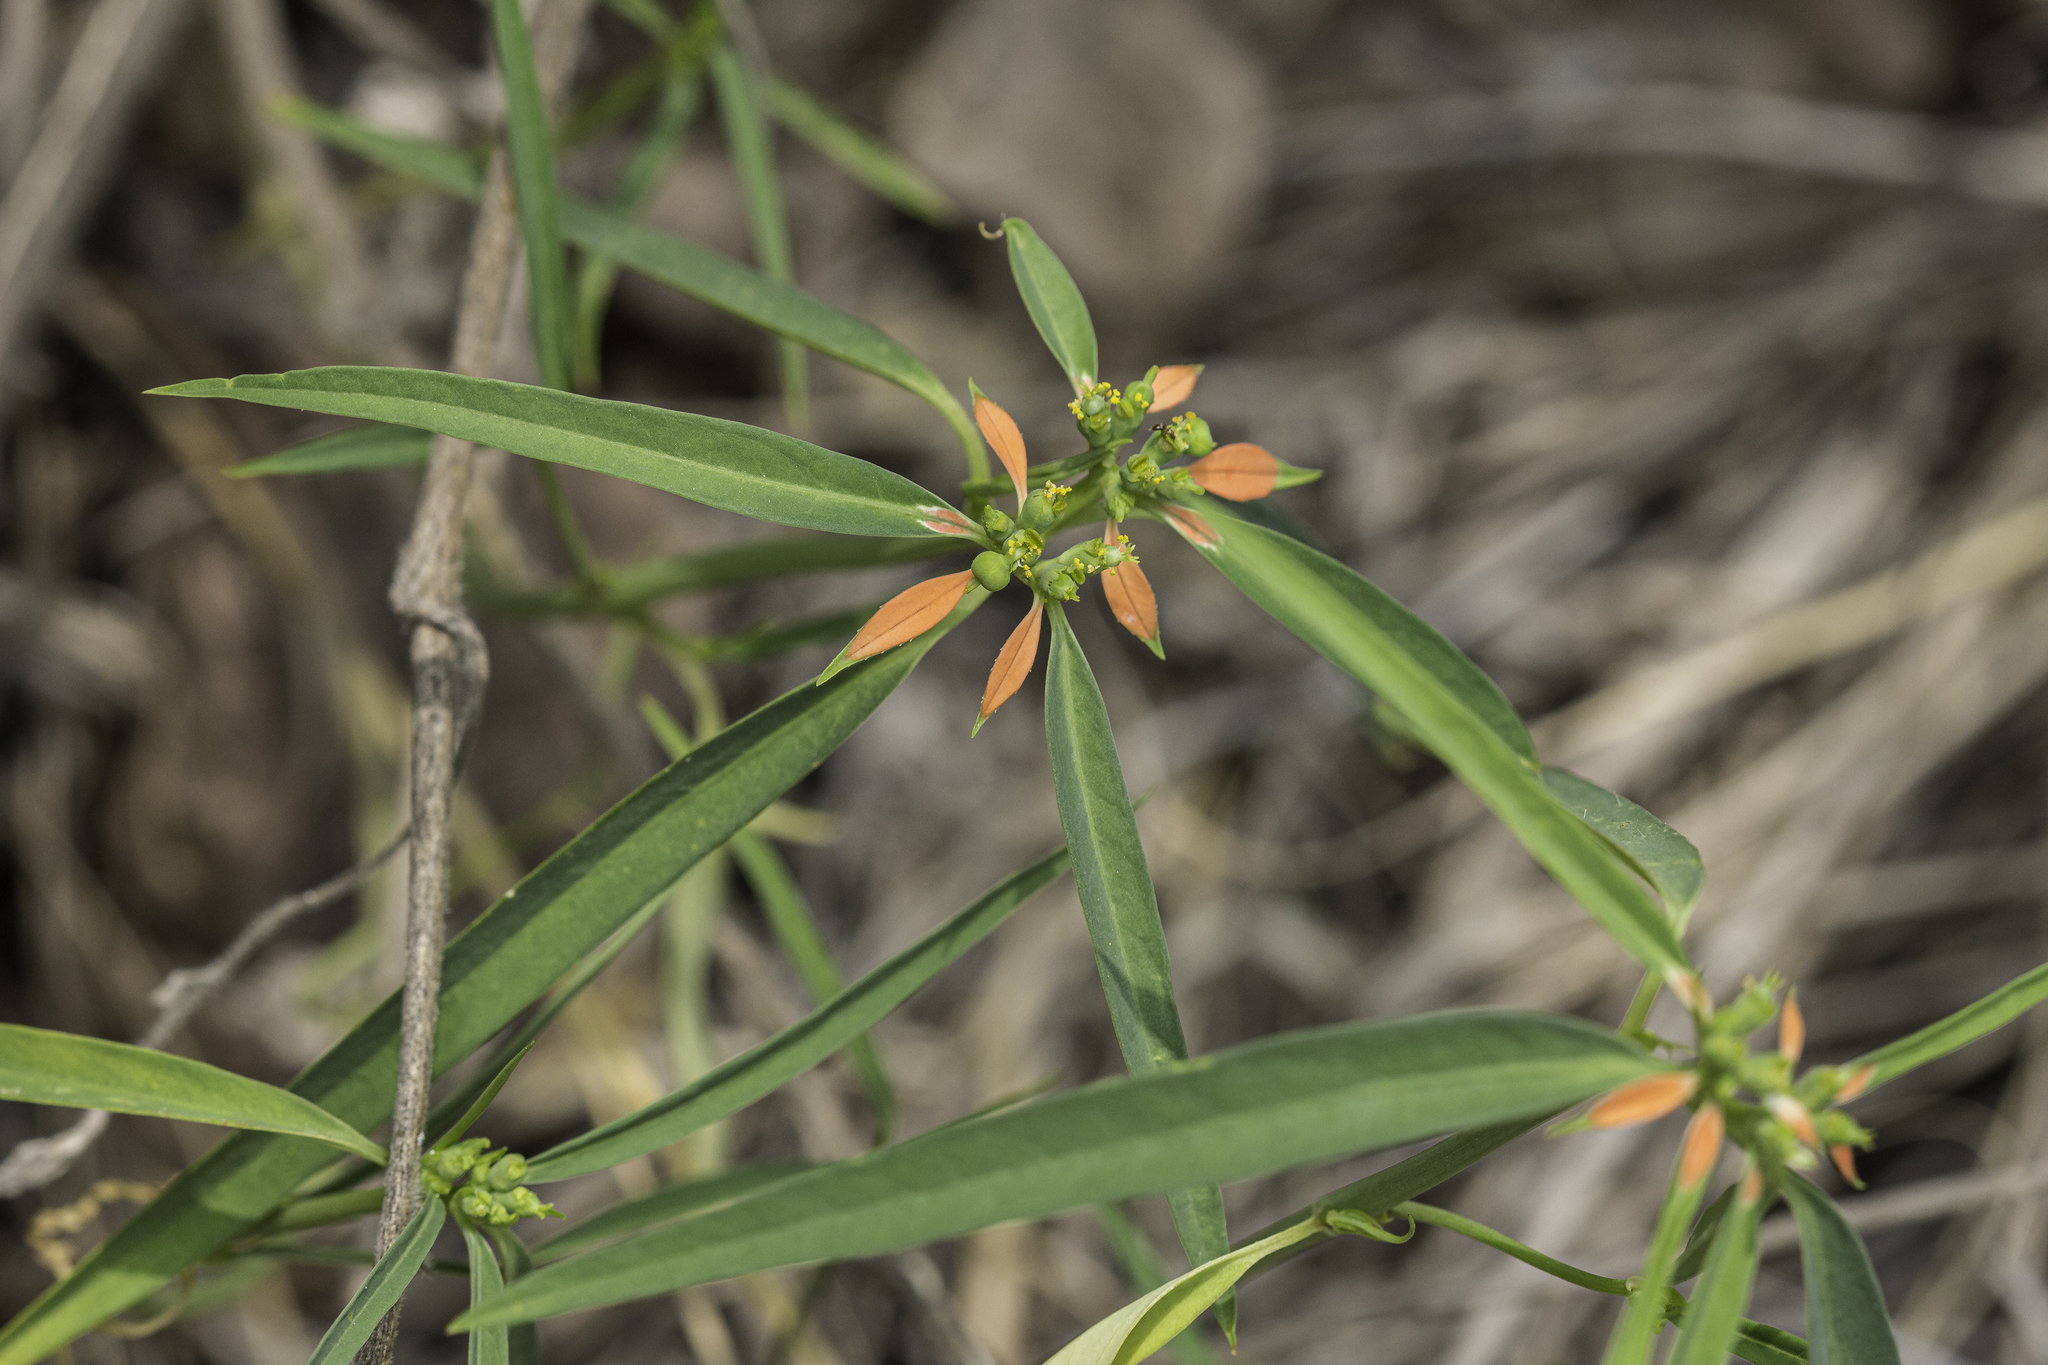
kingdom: Plantae
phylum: Tracheophyta
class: Magnoliopsida
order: Malpighiales
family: Euphorbiaceae
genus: Euphorbia
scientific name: Euphorbia heterophylla
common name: Mexican fireplant
